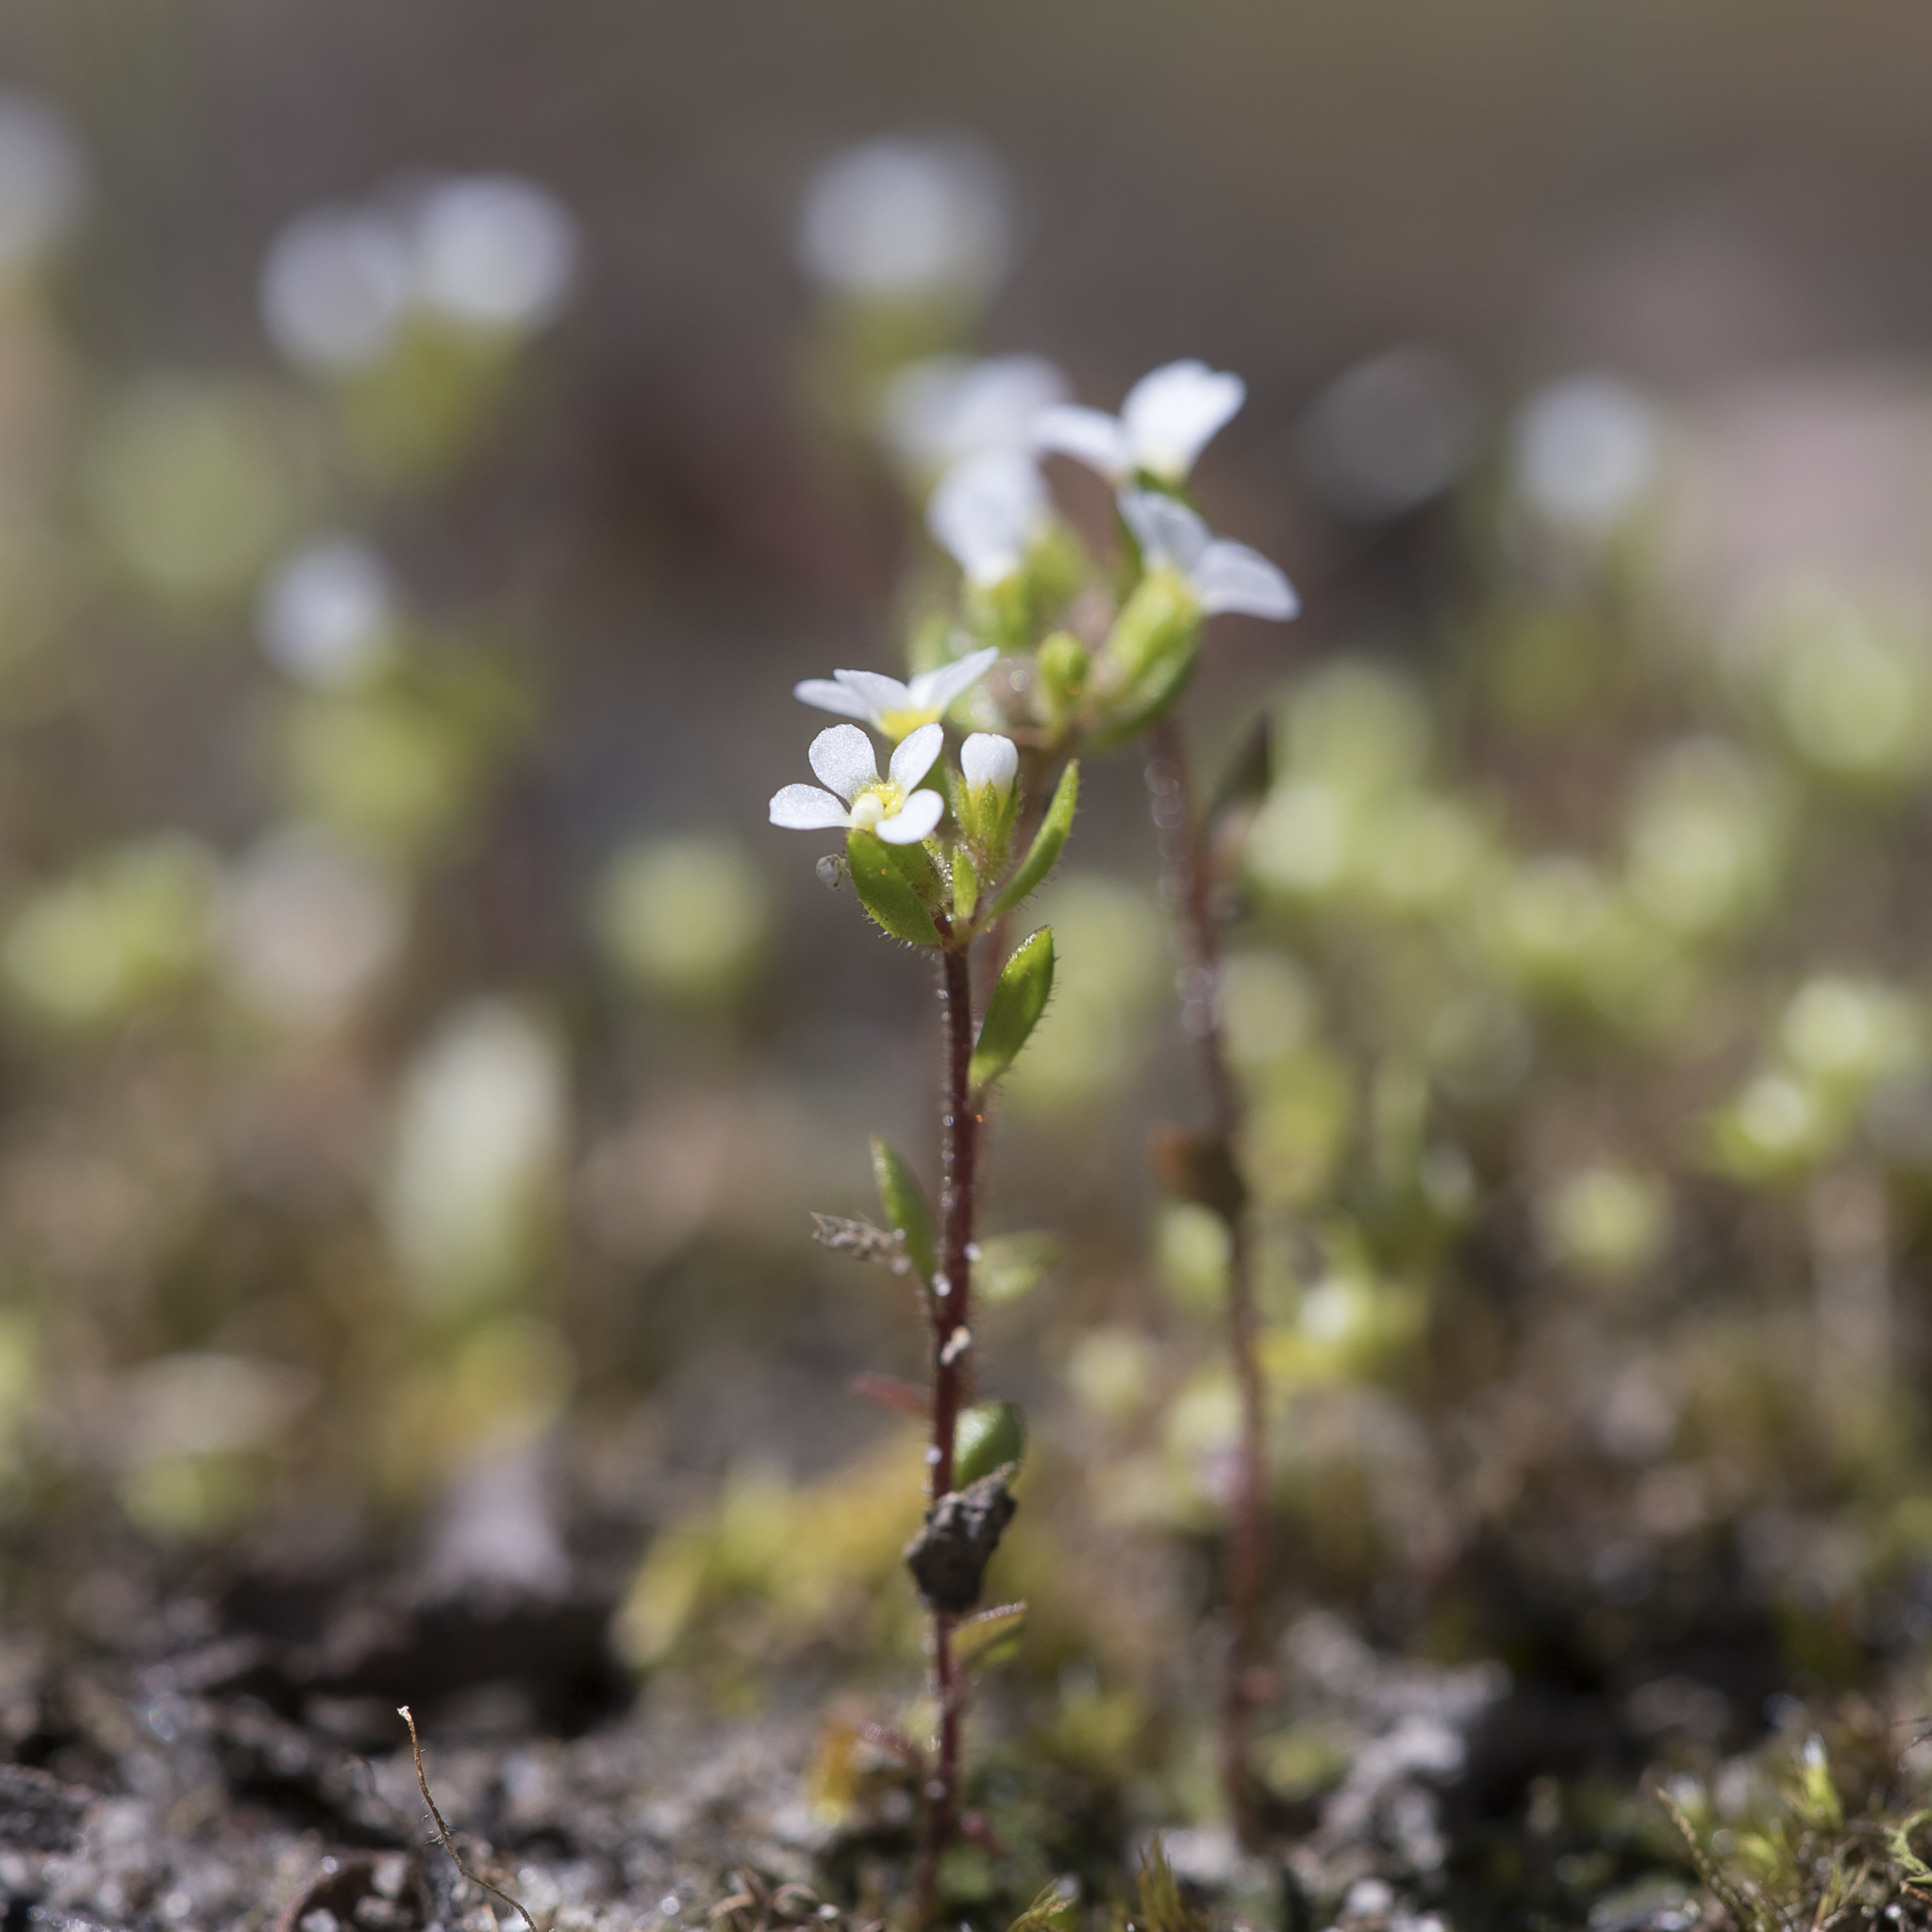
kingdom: Plantae
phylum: Tracheophyta
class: Magnoliopsida
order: Asterales
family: Stylidiaceae
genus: Levenhookia
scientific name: Levenhookia dubia
